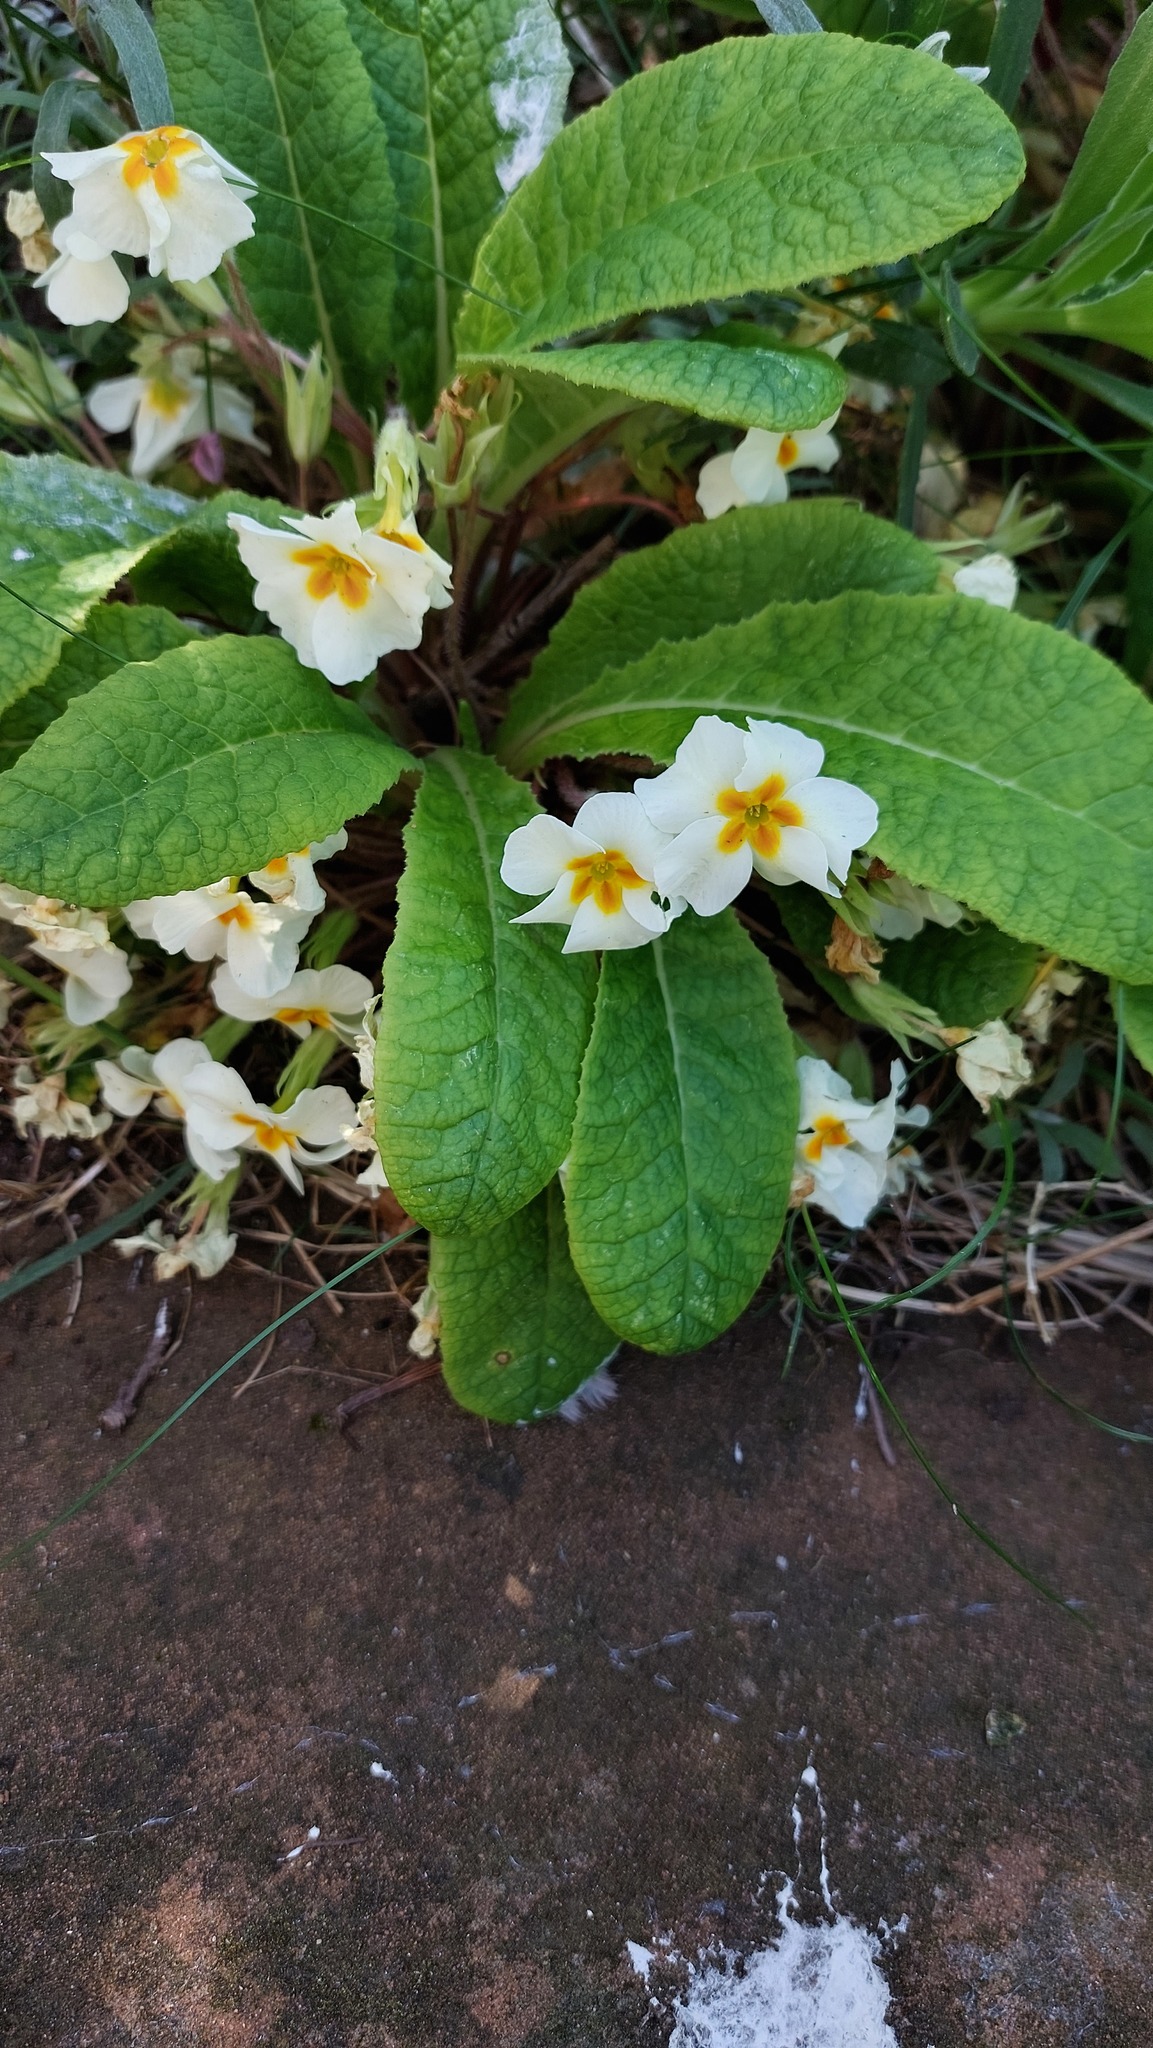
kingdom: Plantae
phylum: Tracheophyta
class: Magnoliopsida
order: Ericales
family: Primulaceae
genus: Primula
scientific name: Primula vulgaris
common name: Primrose
